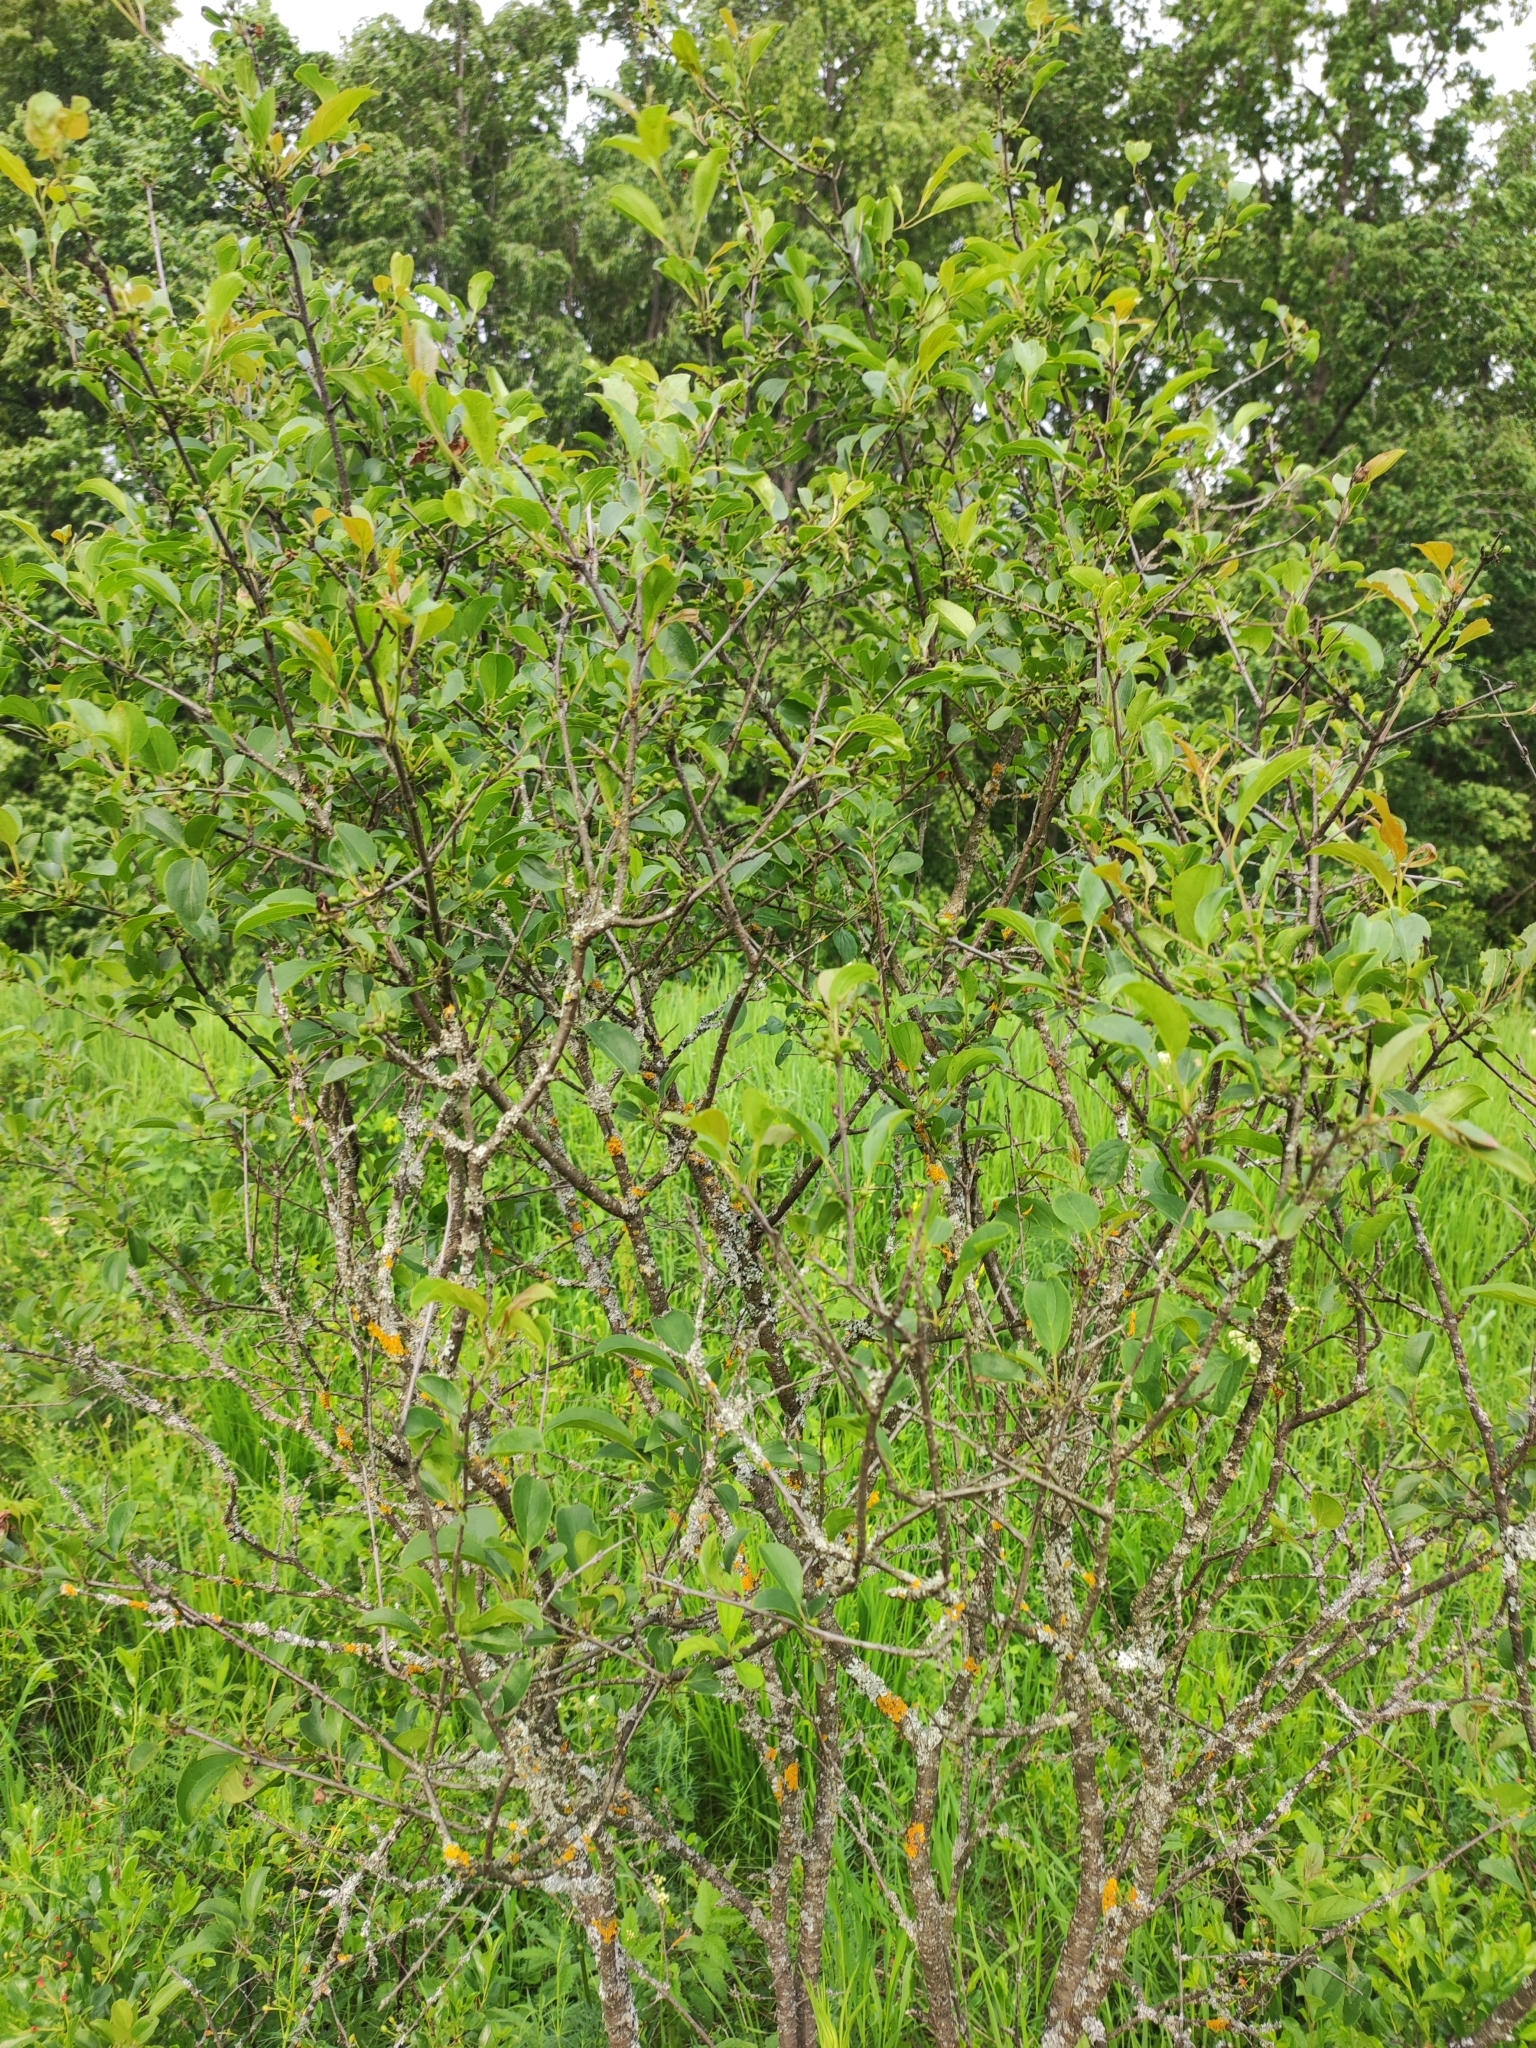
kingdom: Plantae
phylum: Tracheophyta
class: Magnoliopsida
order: Rosales
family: Rhamnaceae
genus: Rhamnus
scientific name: Rhamnus cathartica
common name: Common buckthorn
